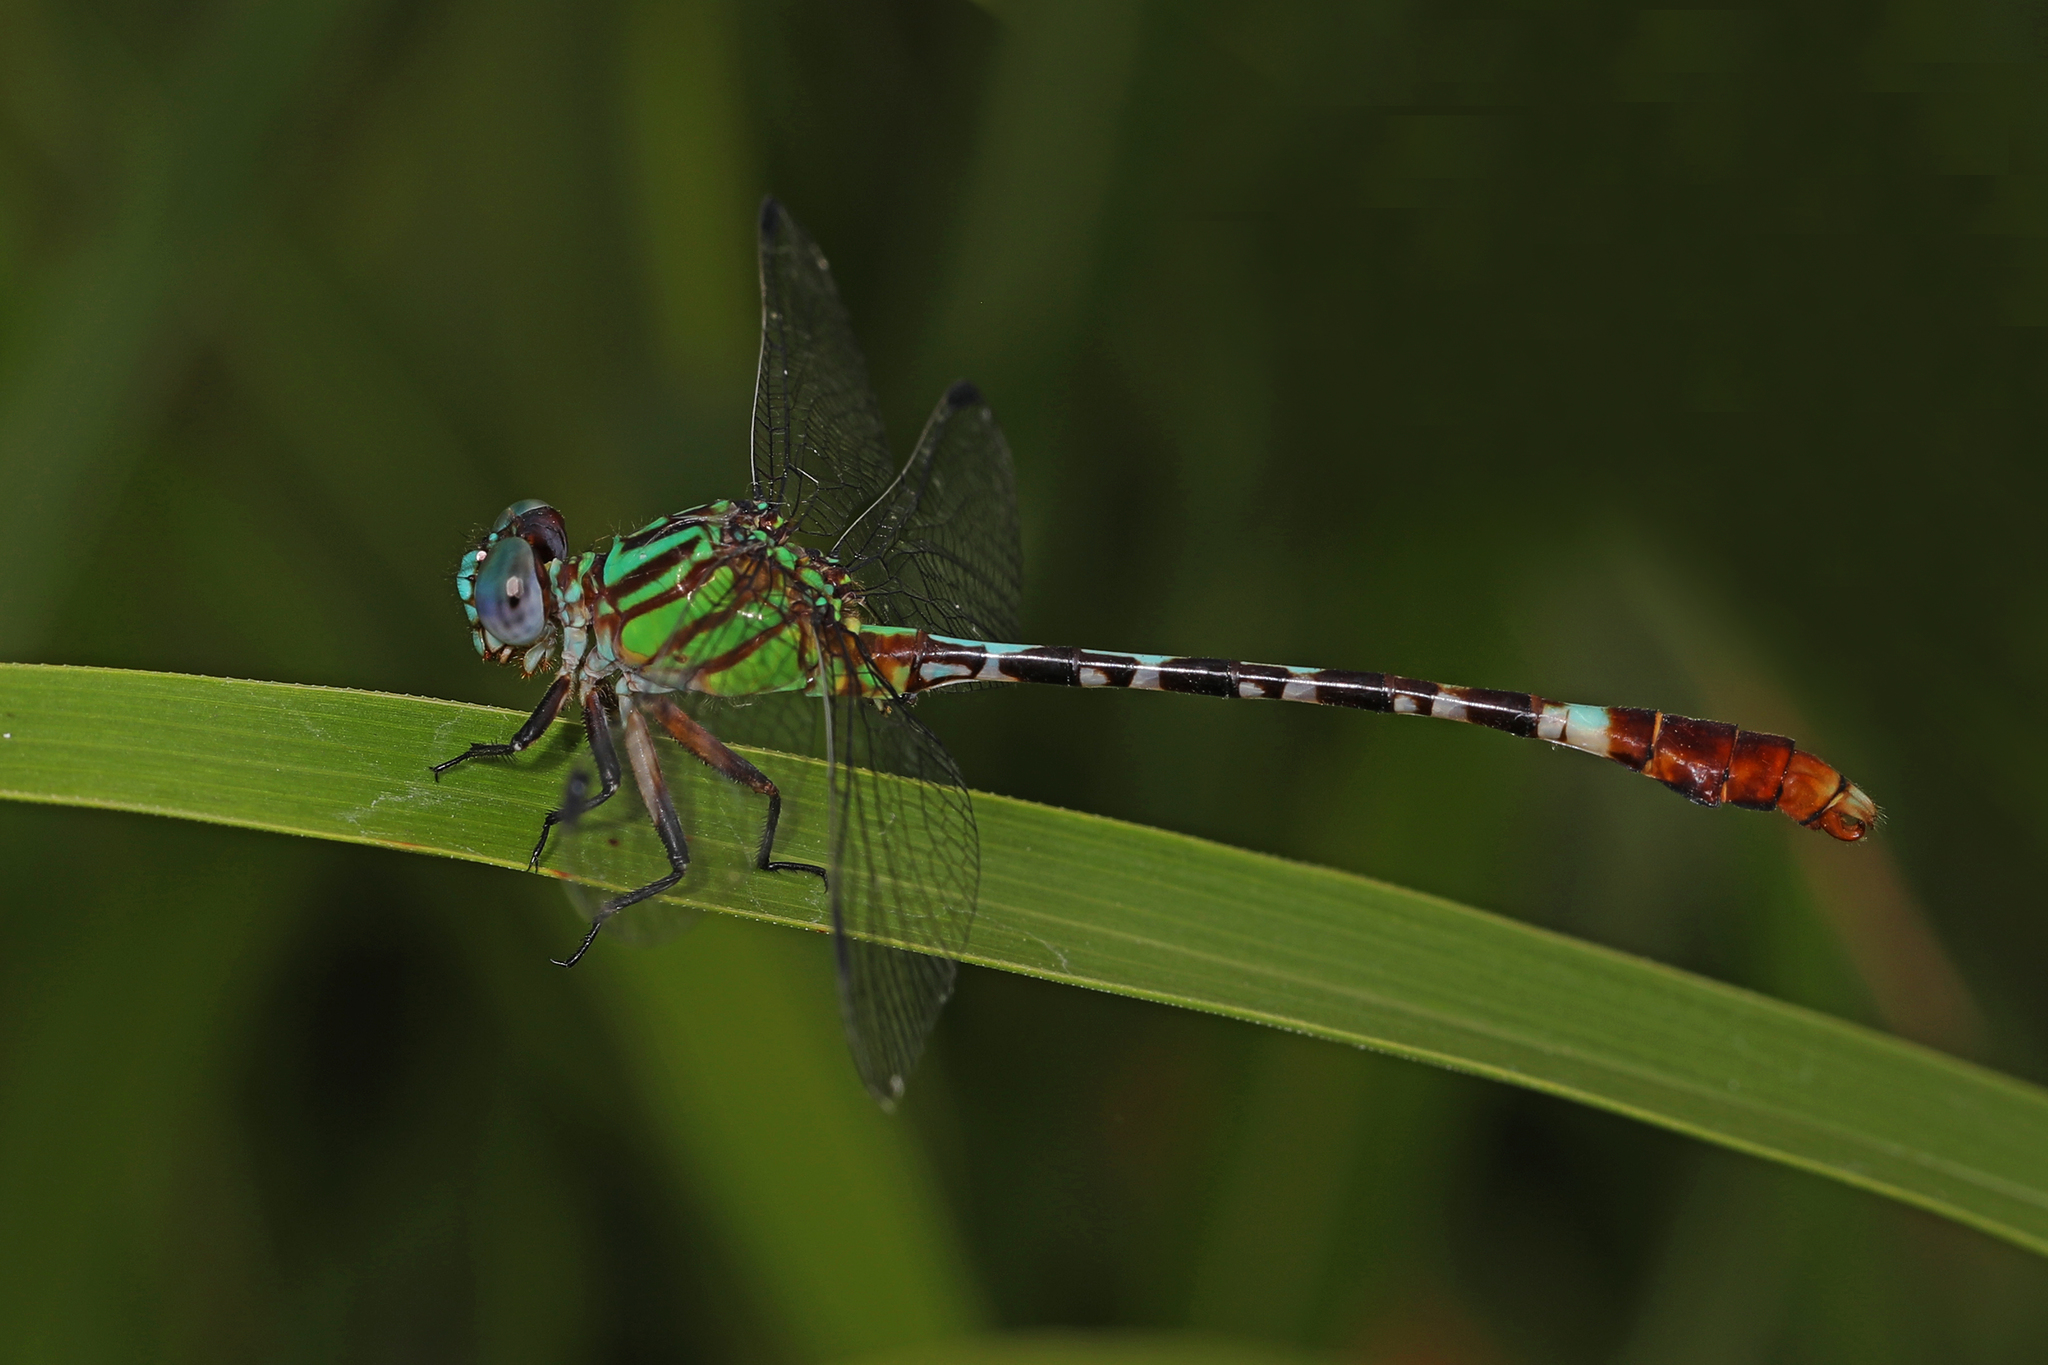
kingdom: Animalia
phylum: Arthropoda
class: Insecta
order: Odonata
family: Gomphidae
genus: Erpetogomphus
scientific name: Erpetogomphus eutainia
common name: Blue-faced ringtail
